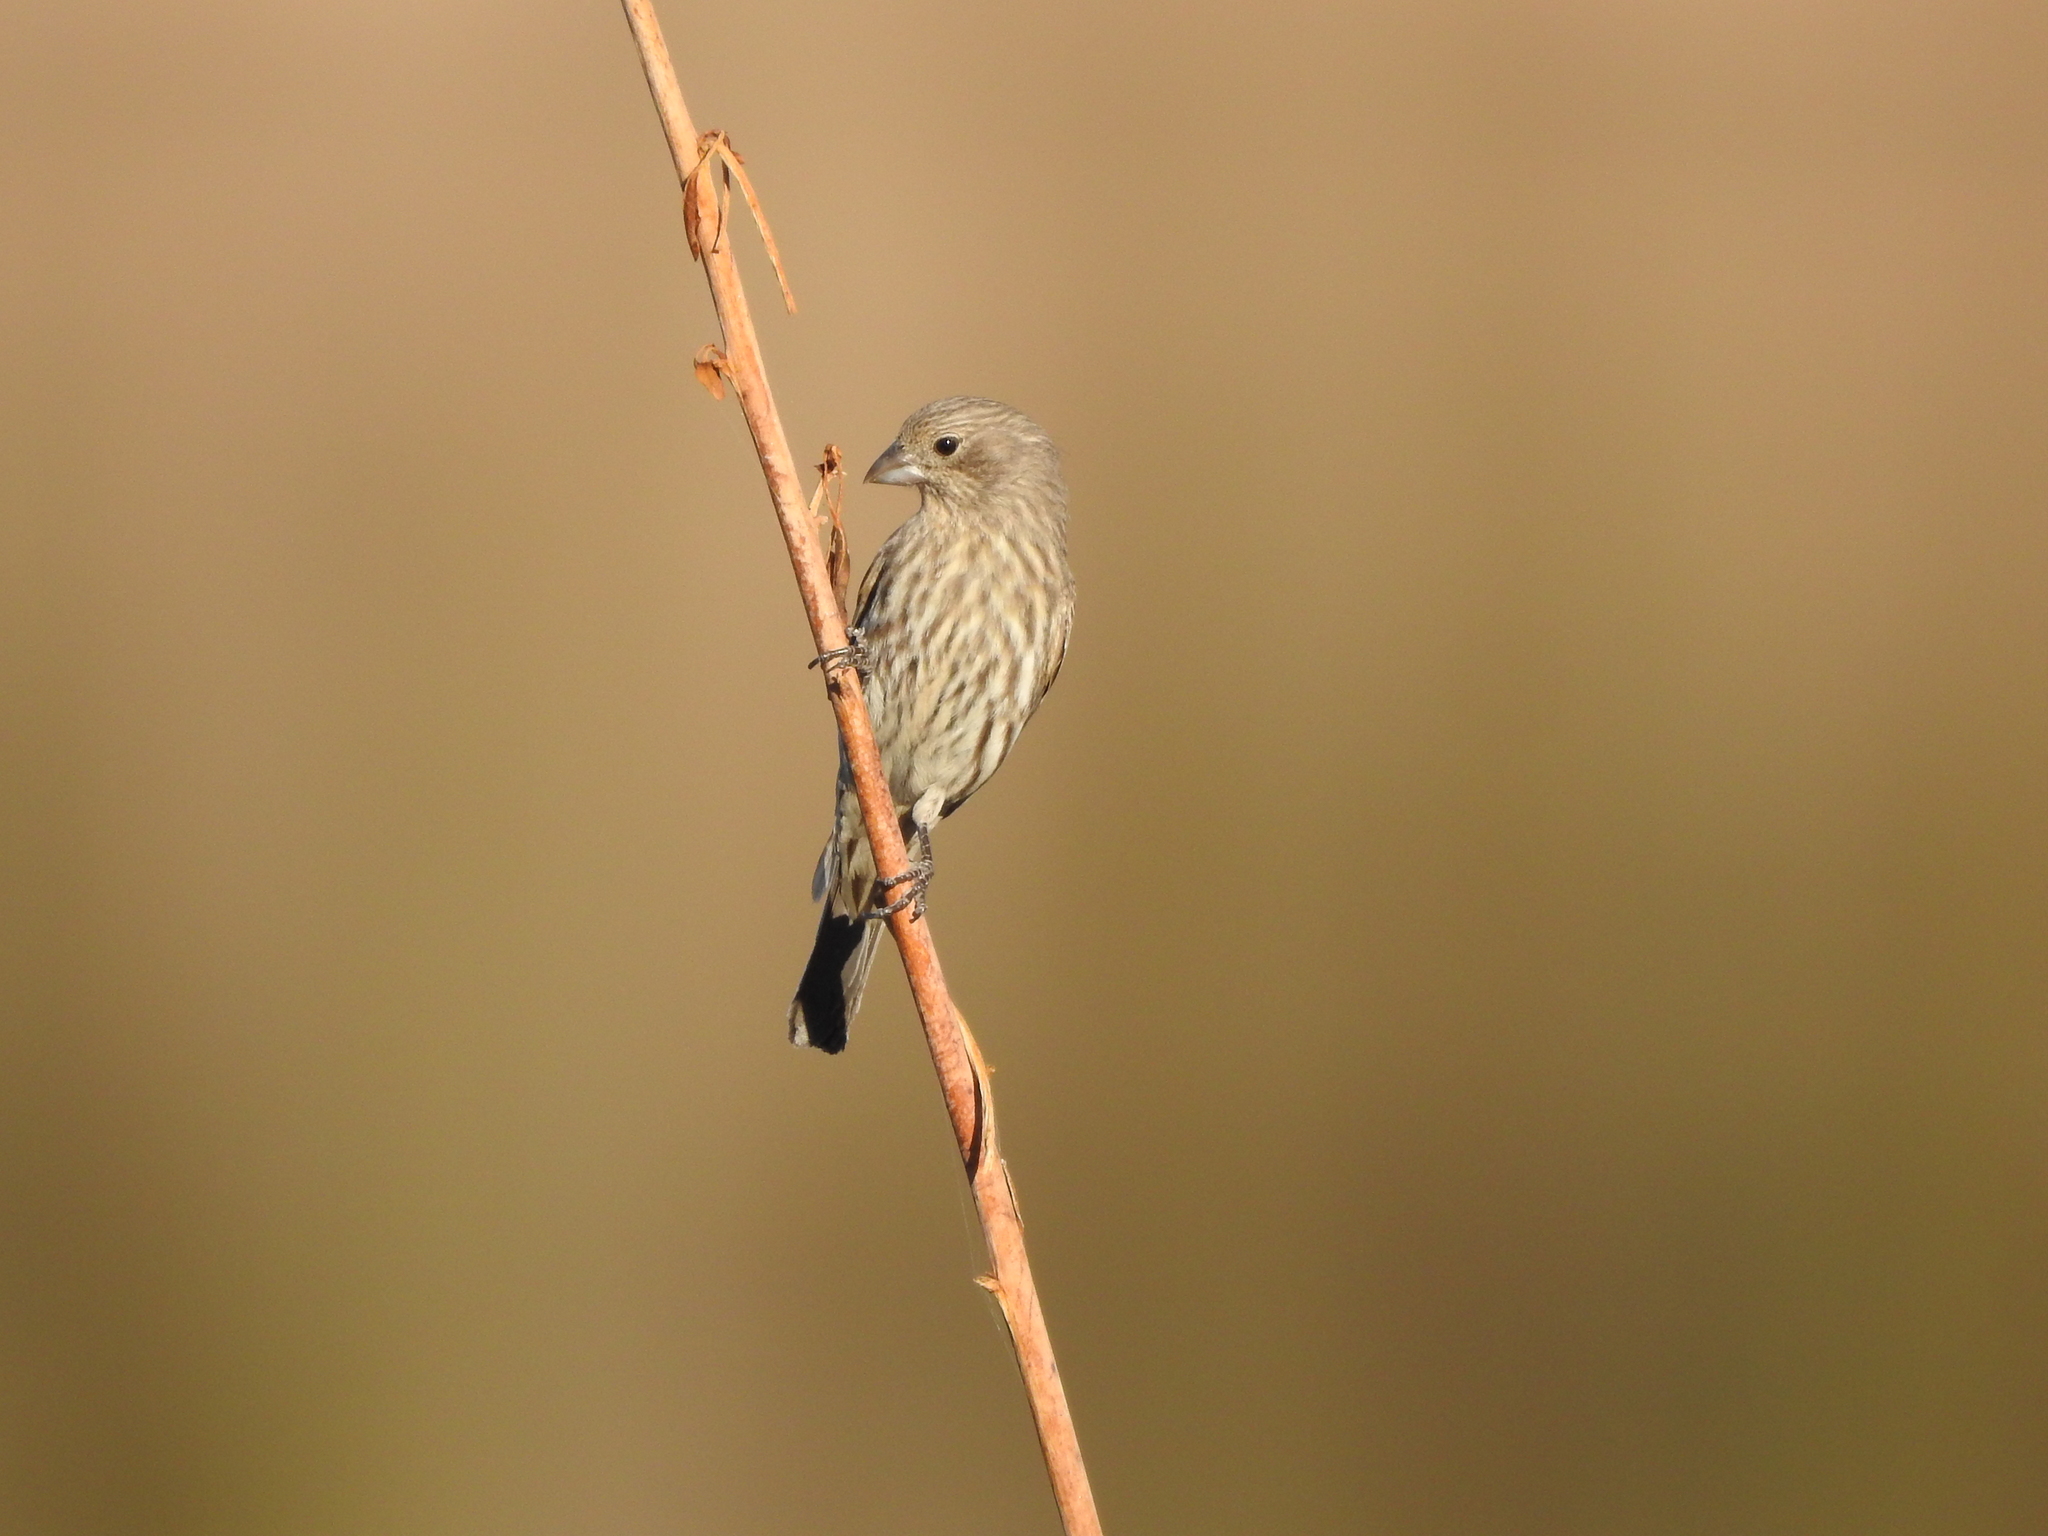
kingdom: Animalia
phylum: Chordata
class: Aves
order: Passeriformes
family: Fringillidae
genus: Haemorhous
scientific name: Haemorhous mexicanus
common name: House finch
